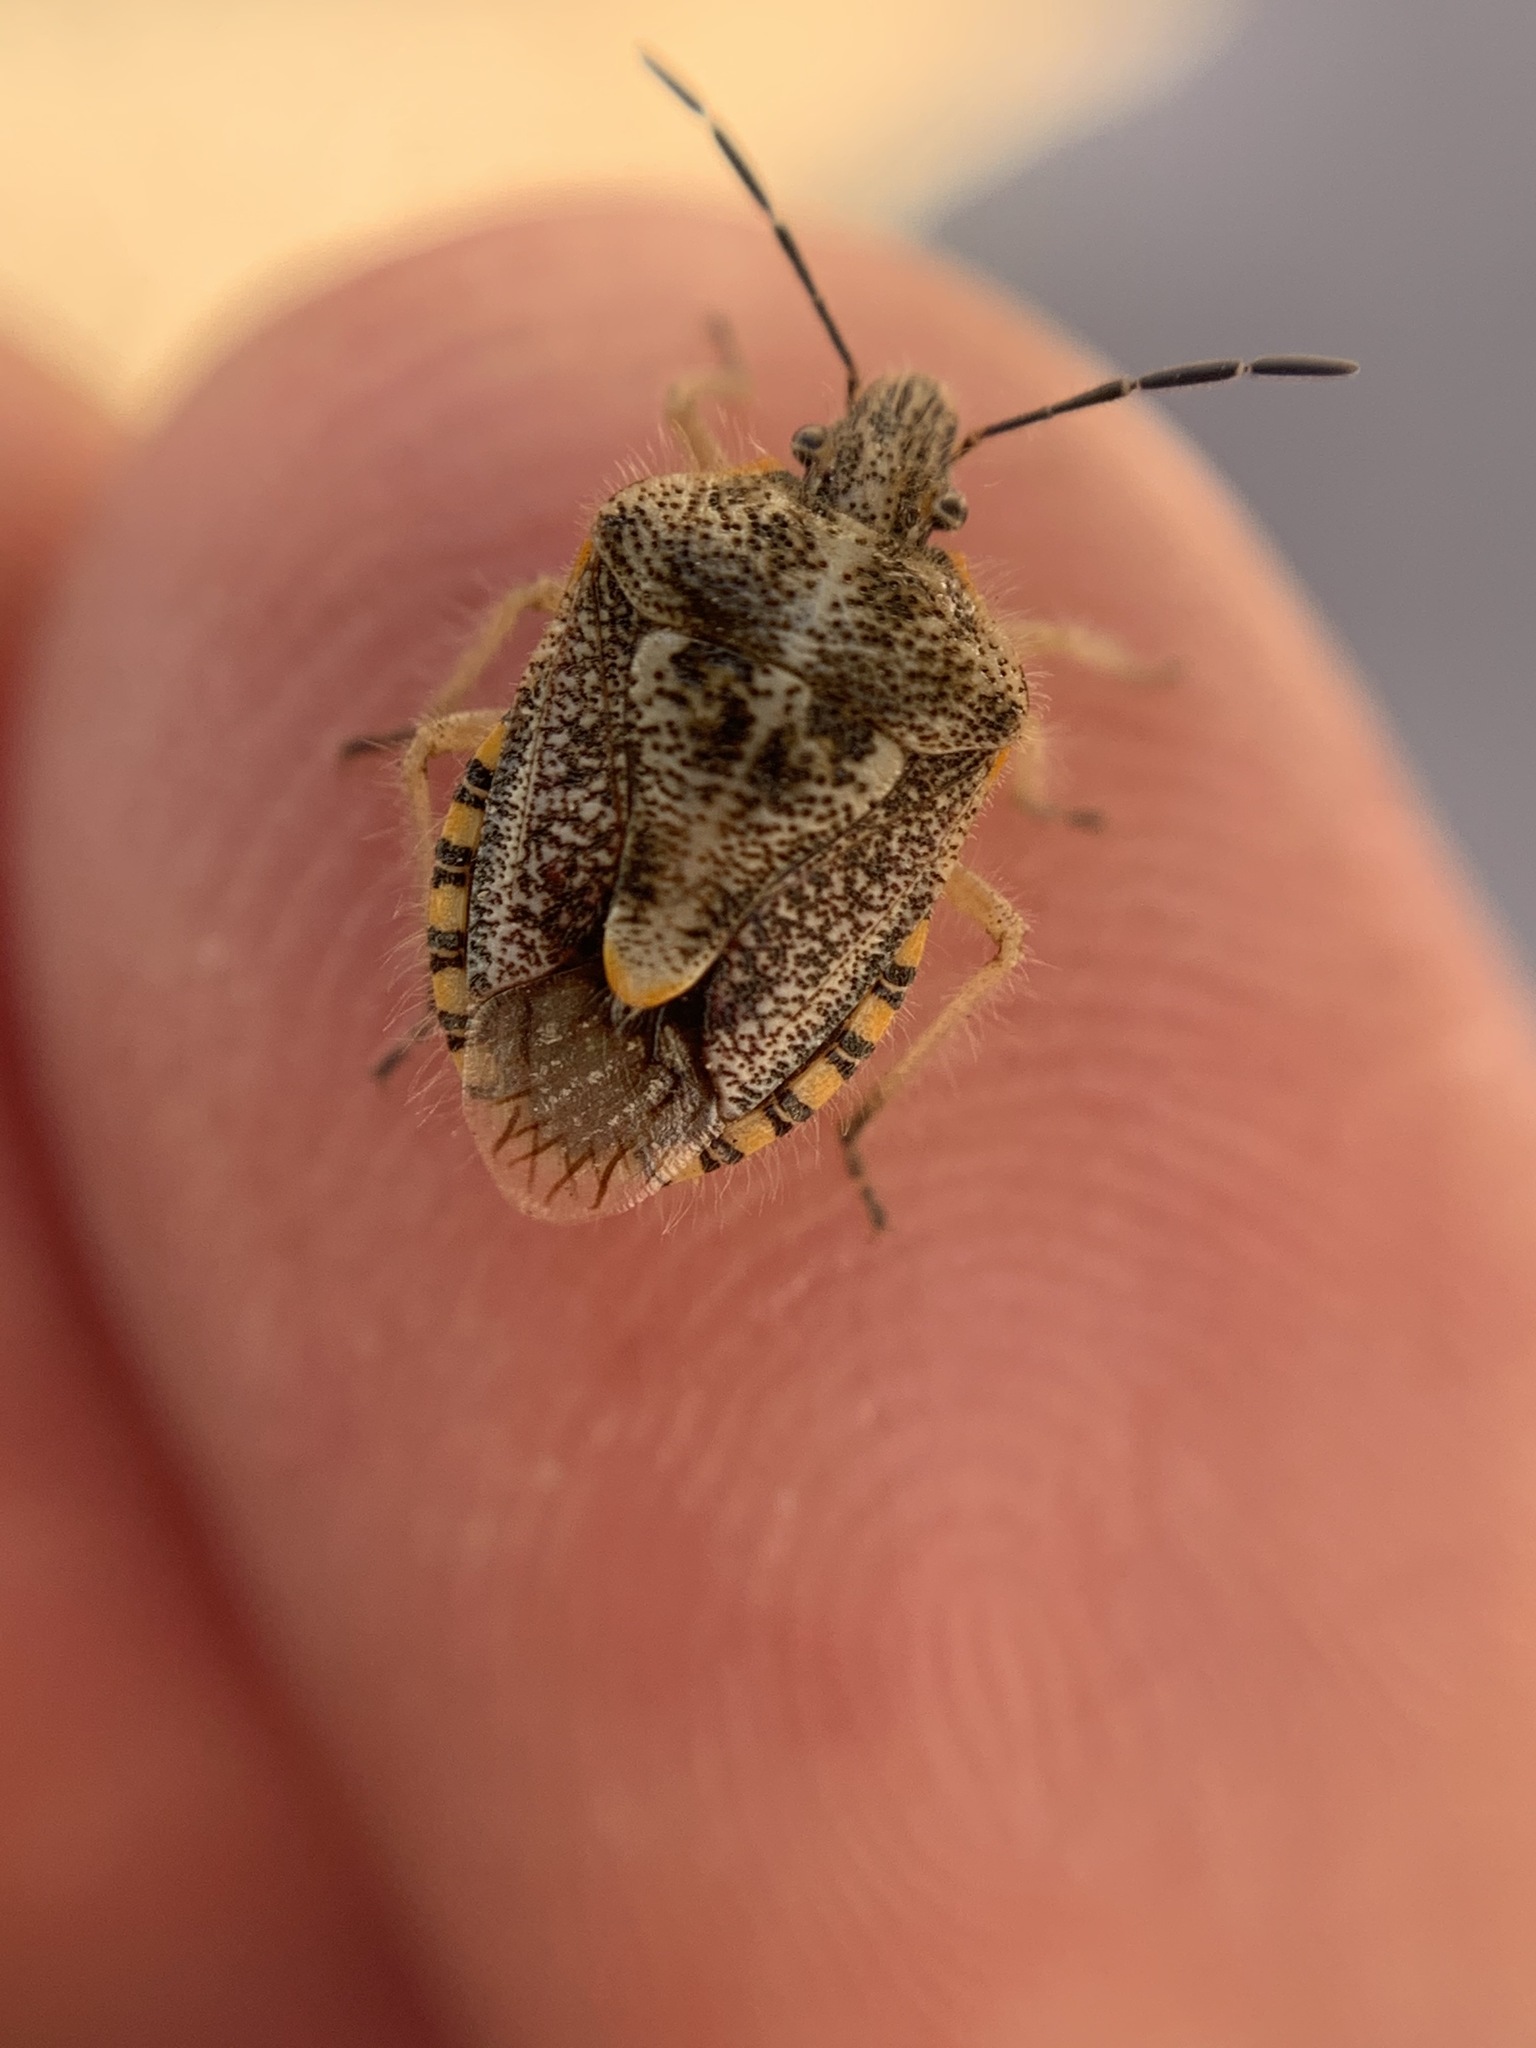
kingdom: Animalia
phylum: Arthropoda
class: Insecta
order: Hemiptera
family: Pentatomidae
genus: Agonoscelis
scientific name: Agonoscelis puberula
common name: African cluster bug
